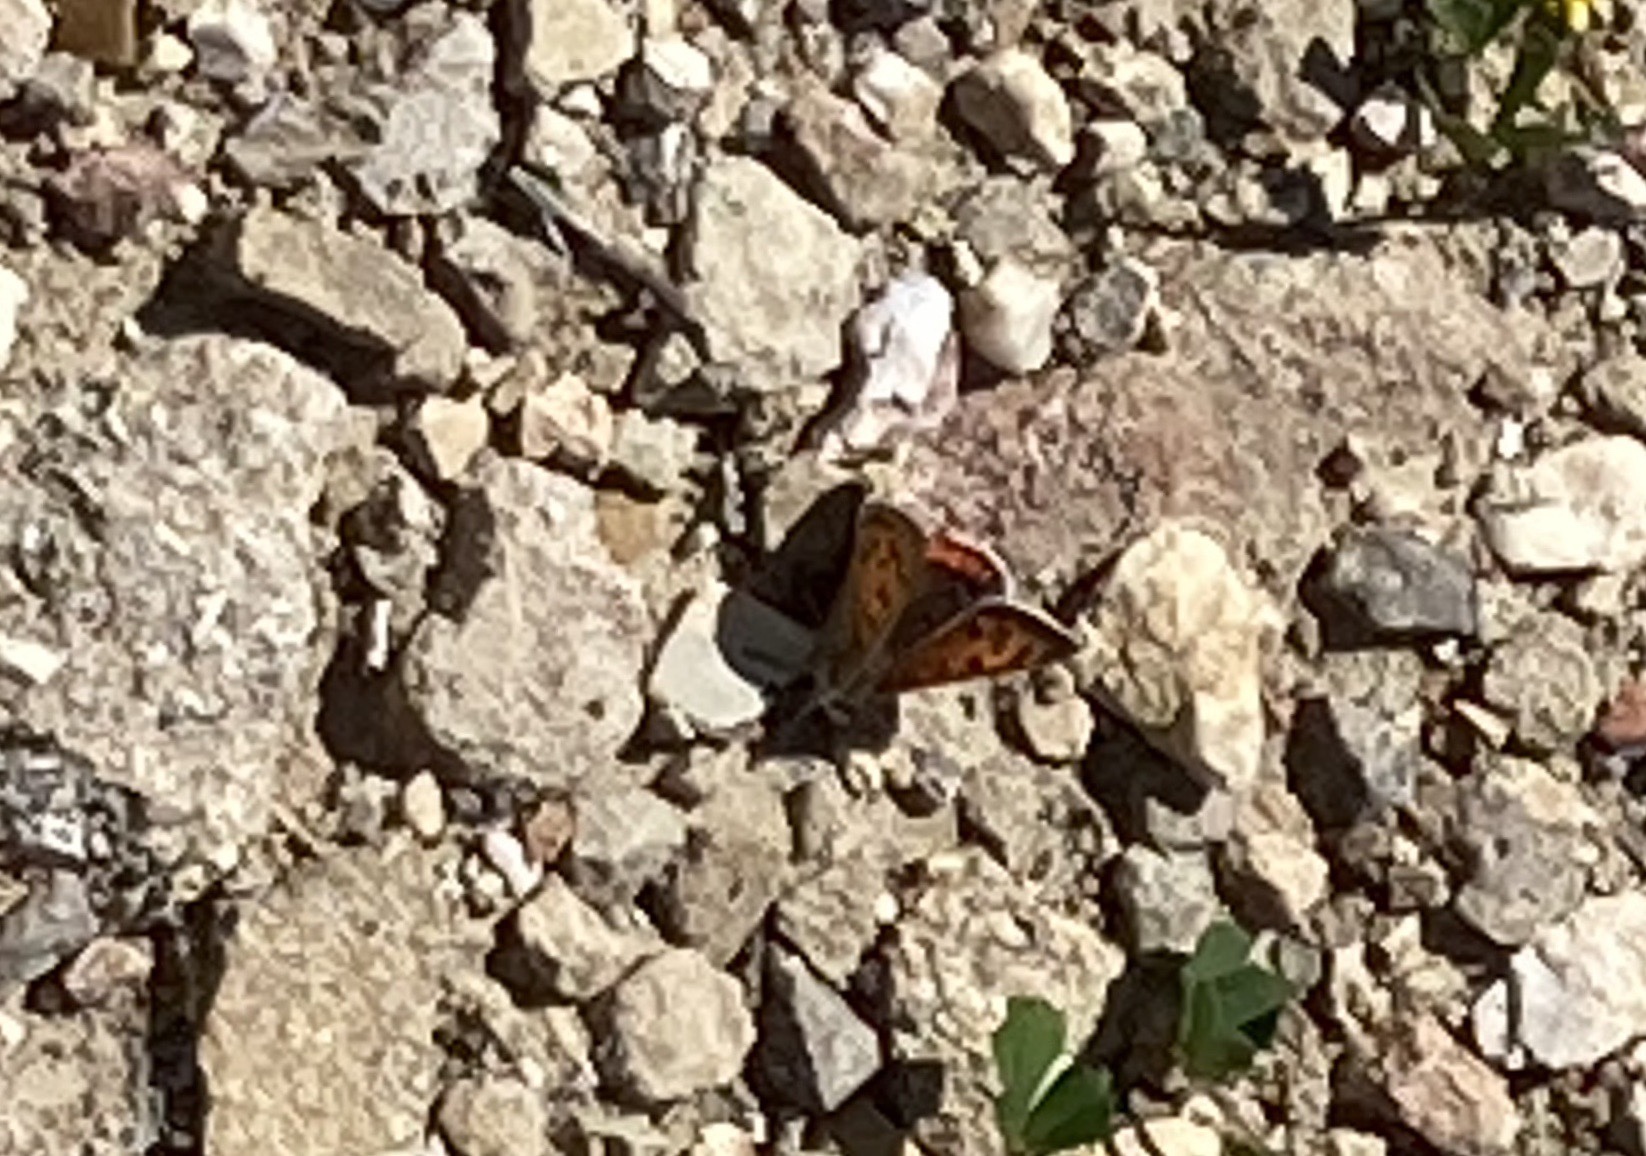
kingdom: Animalia
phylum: Arthropoda
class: Insecta
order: Lepidoptera
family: Lycaenidae
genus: Lycaena
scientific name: Lycaena phlaeas
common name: Small copper
